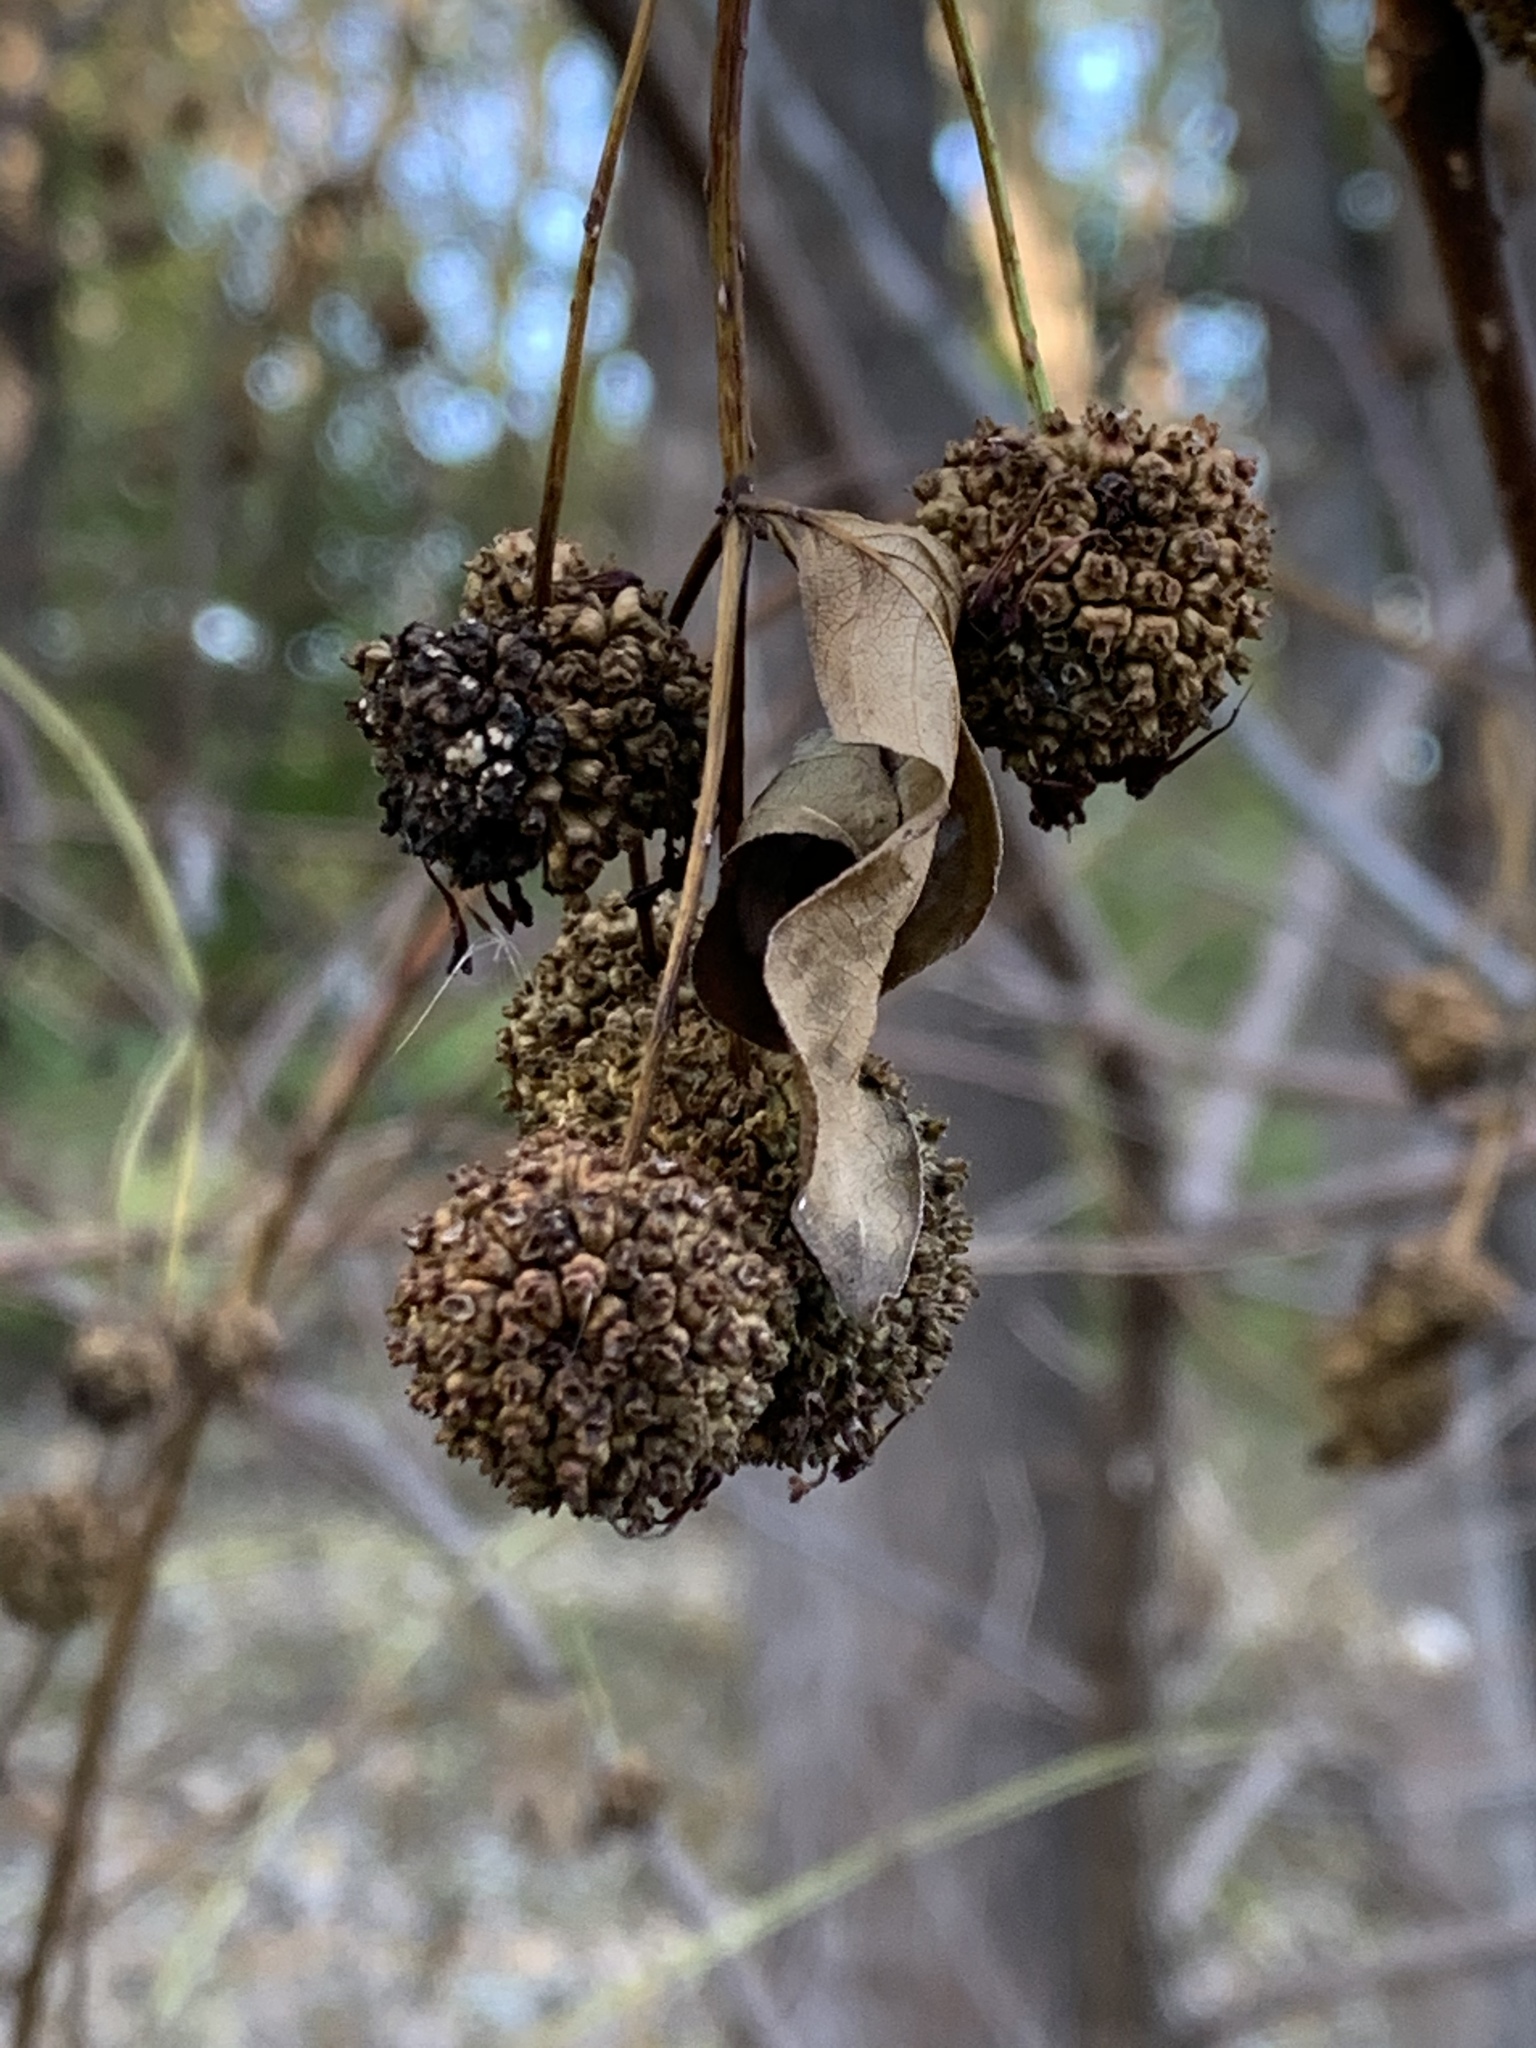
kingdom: Plantae
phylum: Tracheophyta
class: Magnoliopsida
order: Gentianales
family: Rubiaceae
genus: Cephalanthus
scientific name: Cephalanthus occidentalis
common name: Button-willow
